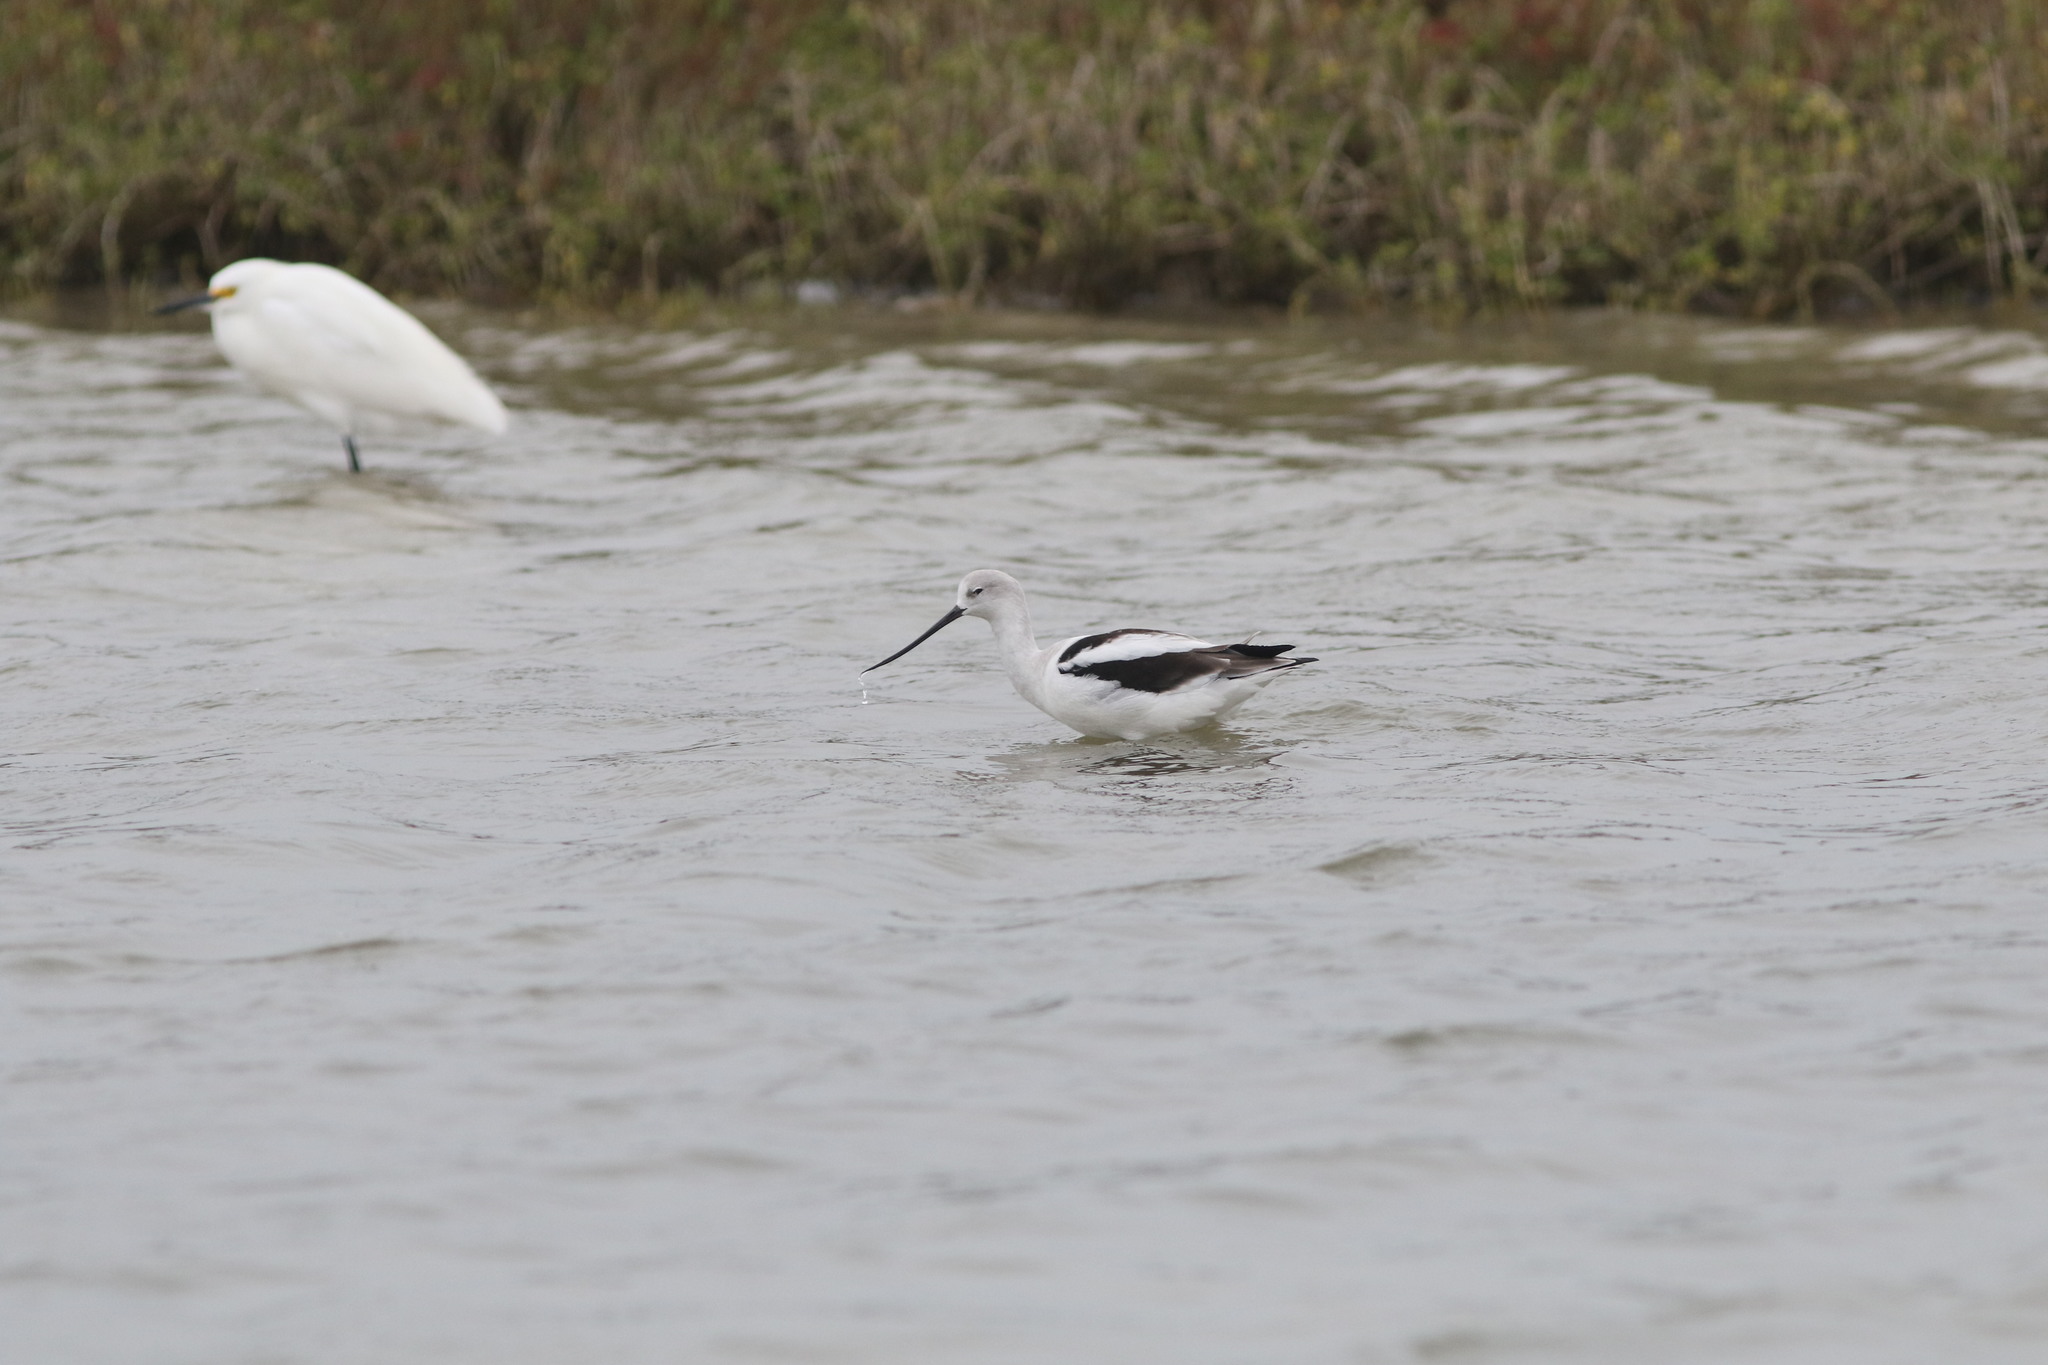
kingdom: Animalia
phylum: Chordata
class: Aves
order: Charadriiformes
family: Recurvirostridae
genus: Recurvirostra
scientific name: Recurvirostra americana
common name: American avocet
